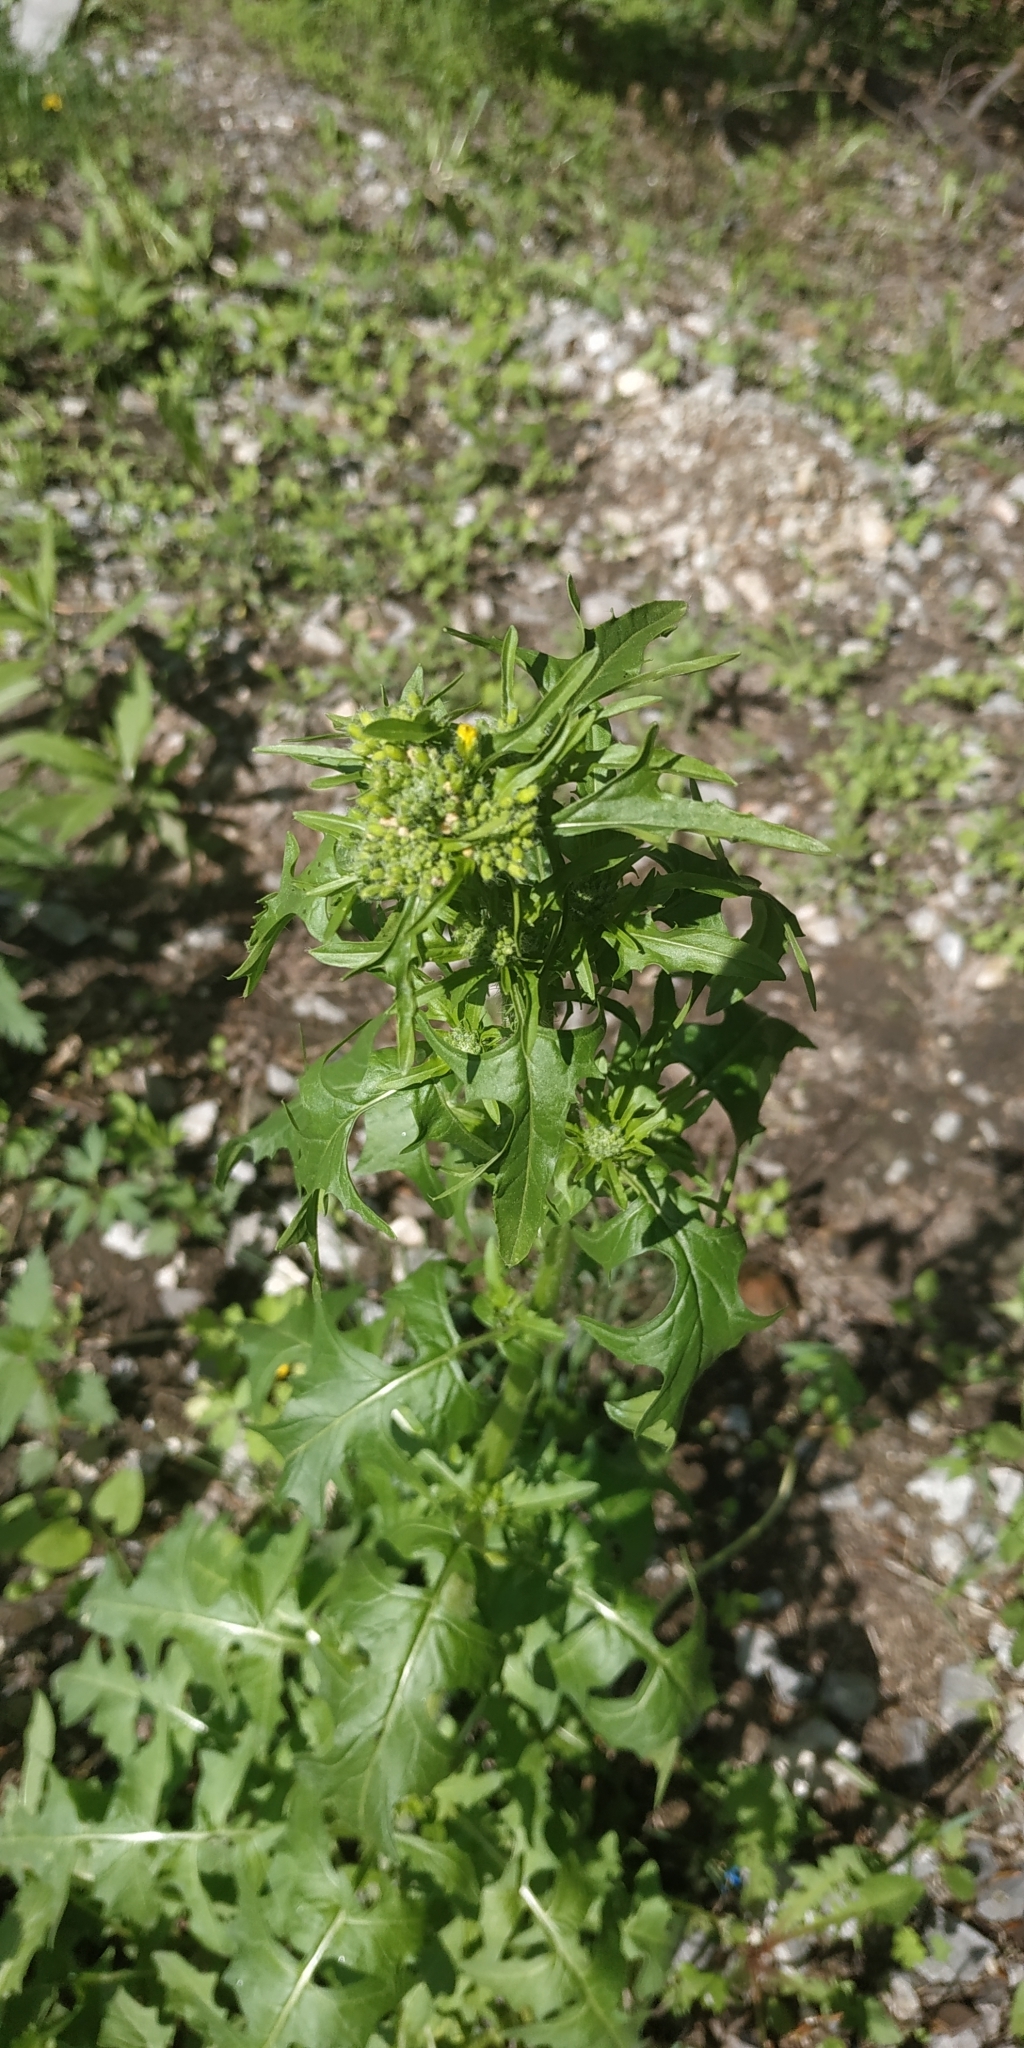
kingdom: Plantae
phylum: Tracheophyta
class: Magnoliopsida
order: Brassicales
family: Brassicaceae
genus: Sisymbrium
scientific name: Sisymbrium loeselii
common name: False london-rocket
